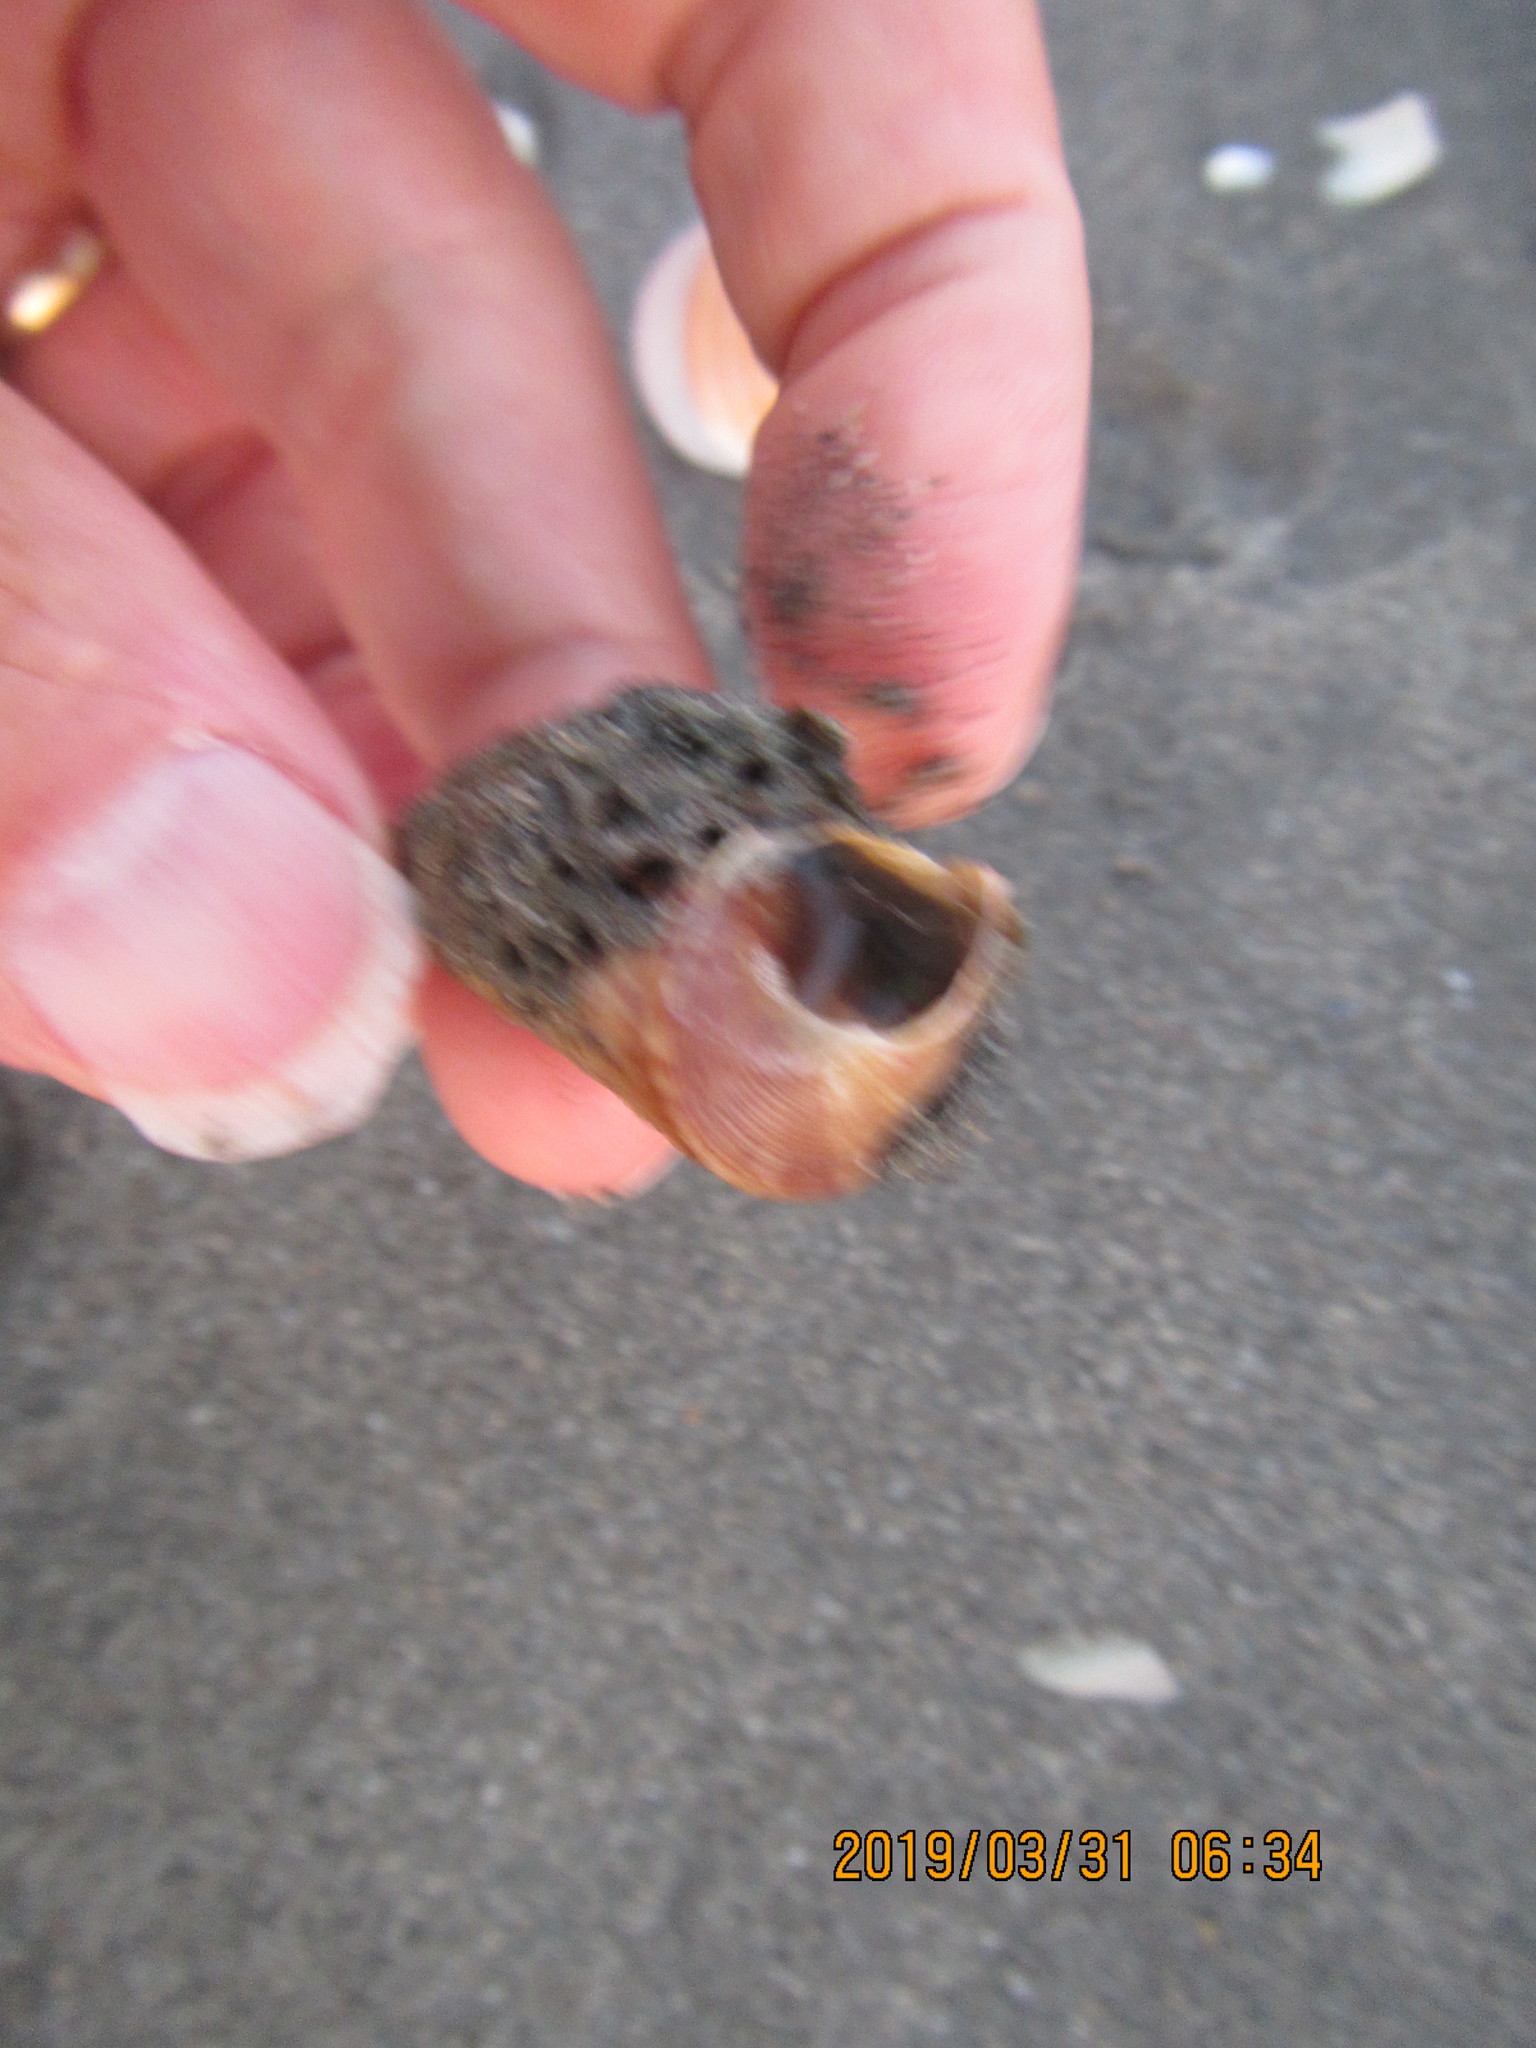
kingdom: Animalia
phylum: Mollusca
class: Gastropoda
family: Turritellidae
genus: Maoricolpus
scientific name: Maoricolpus roseus
